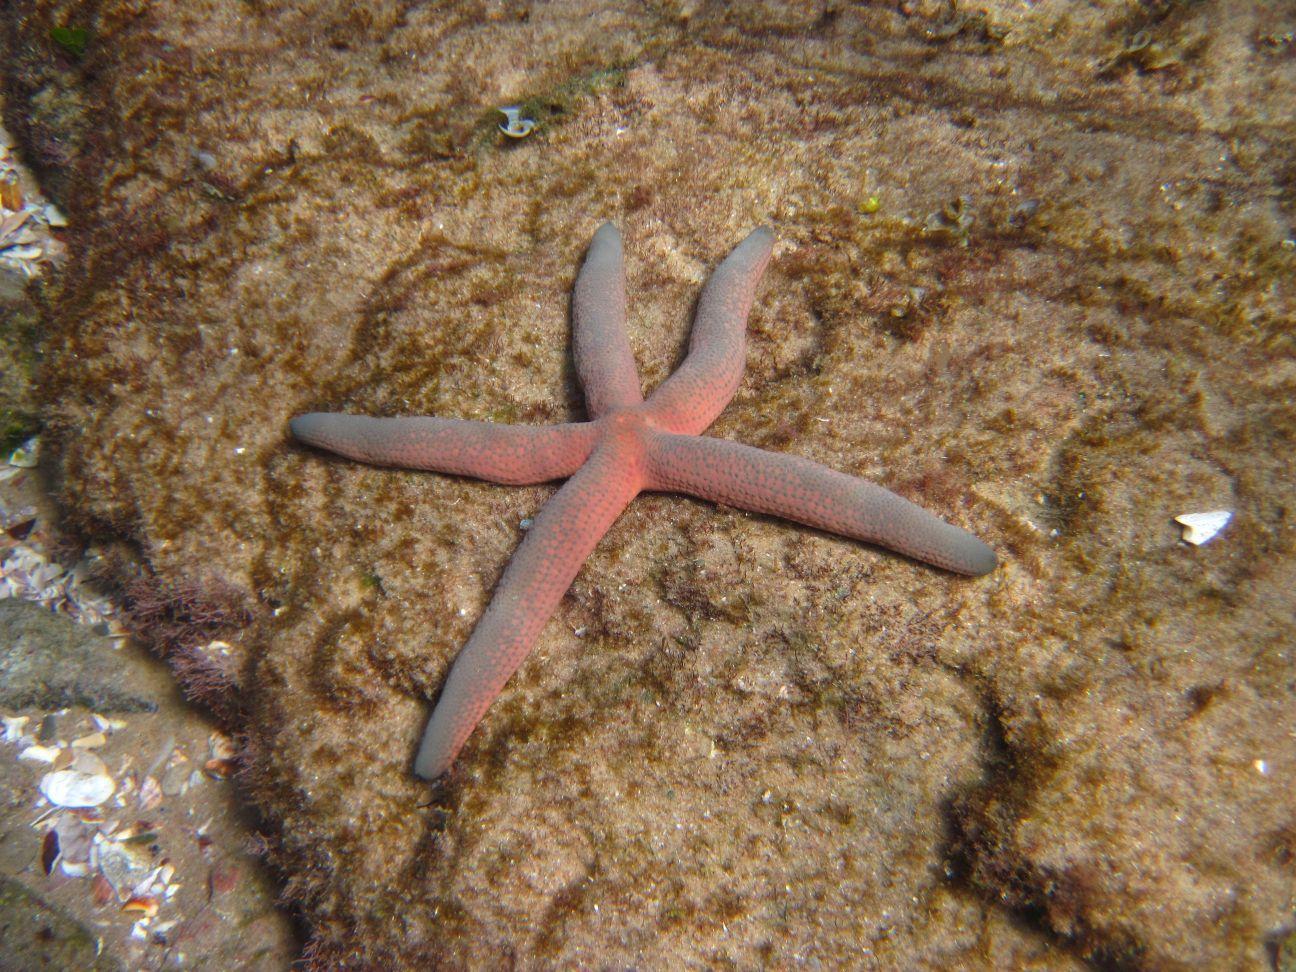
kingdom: Animalia
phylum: Echinodermata
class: Asteroidea
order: Valvatida
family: Ophidiasteridae
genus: Linckia
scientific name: Linckia laevigata
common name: Azure sea star
